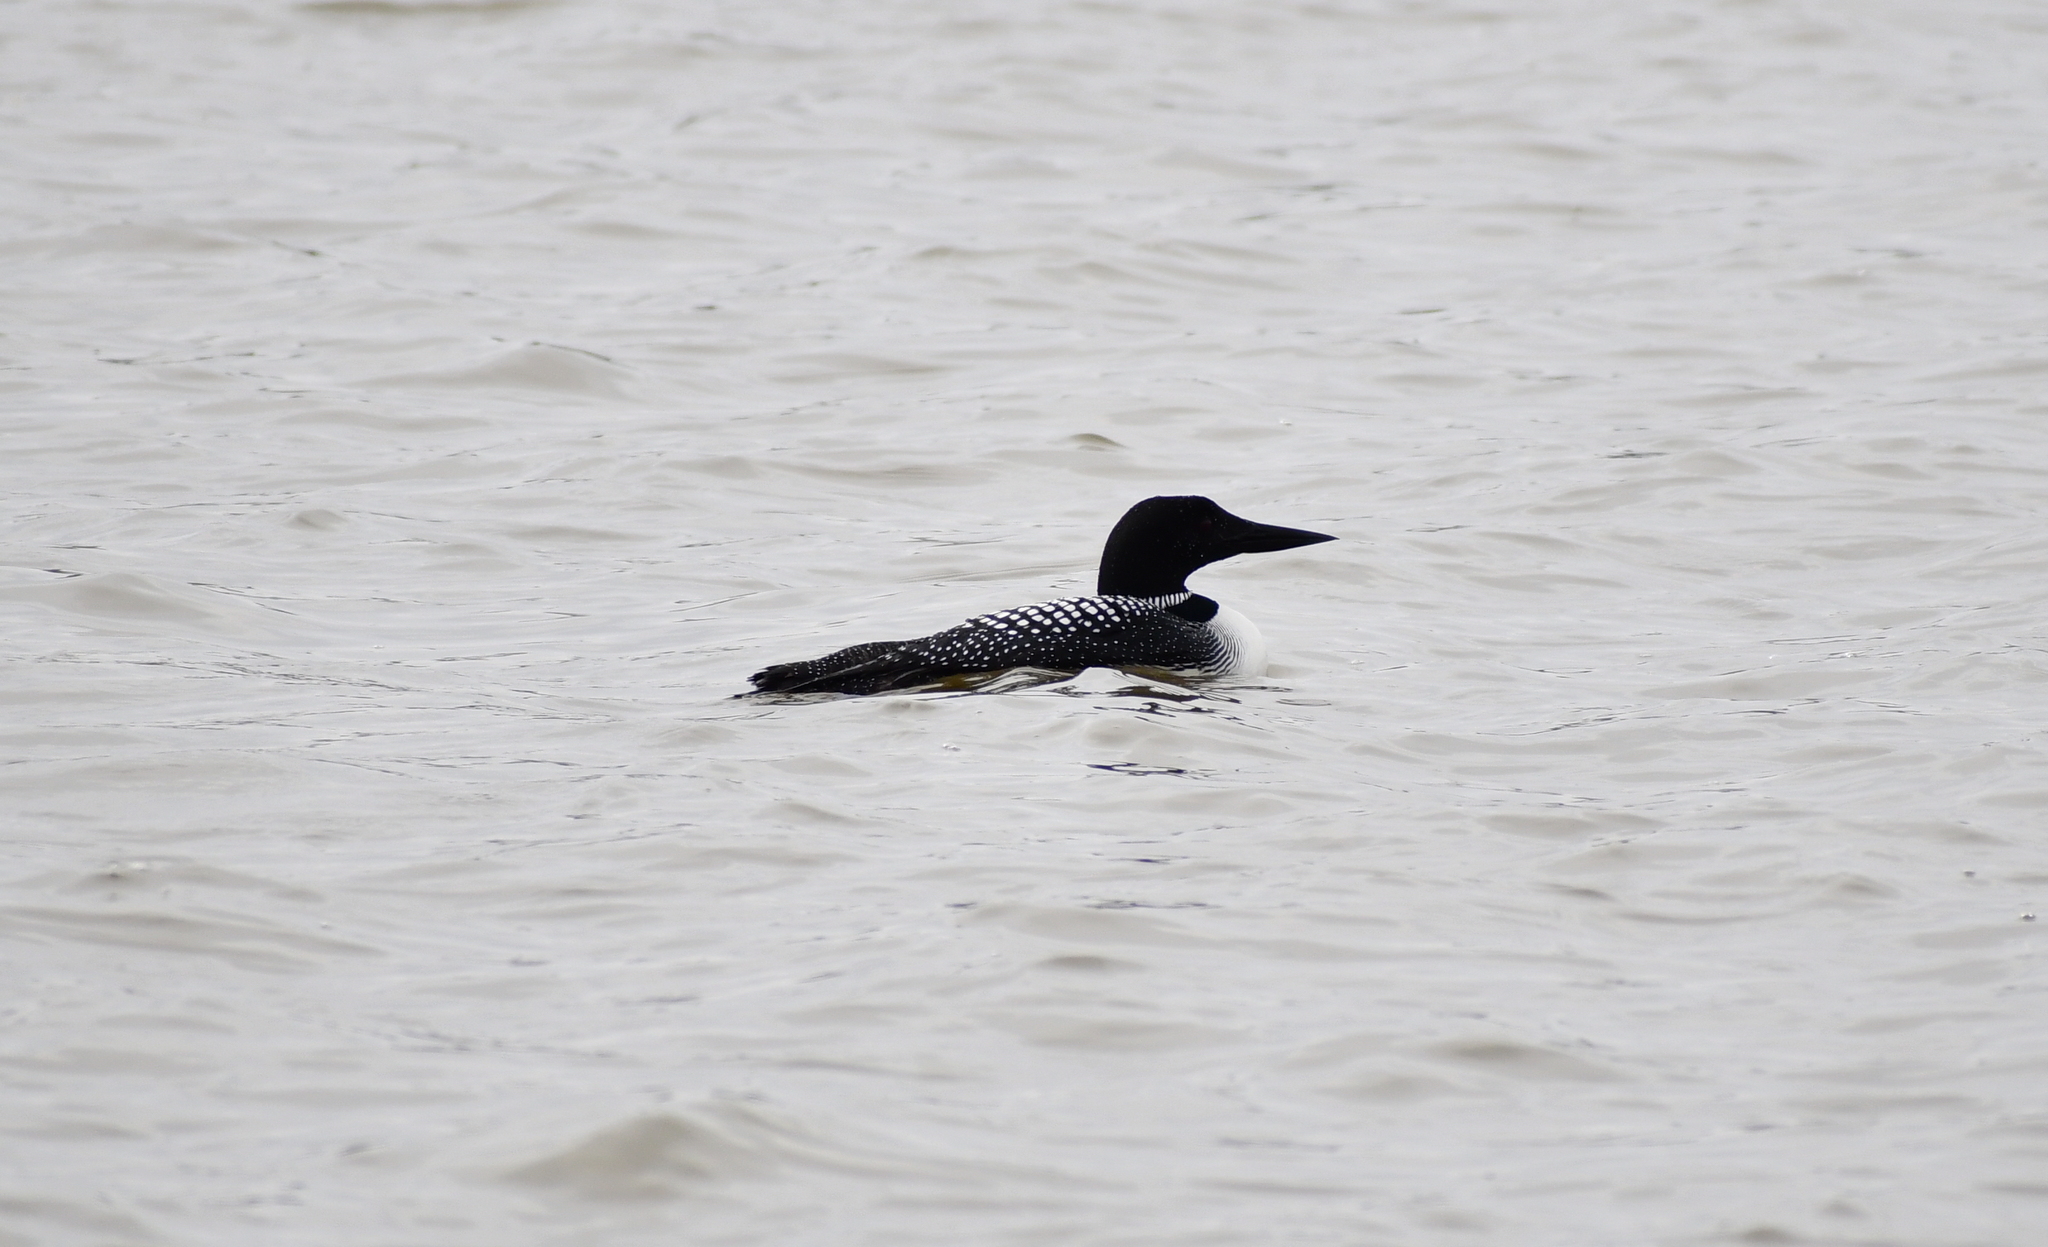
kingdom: Animalia
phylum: Chordata
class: Aves
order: Gaviiformes
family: Gaviidae
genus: Gavia
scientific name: Gavia immer
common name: Common loon
